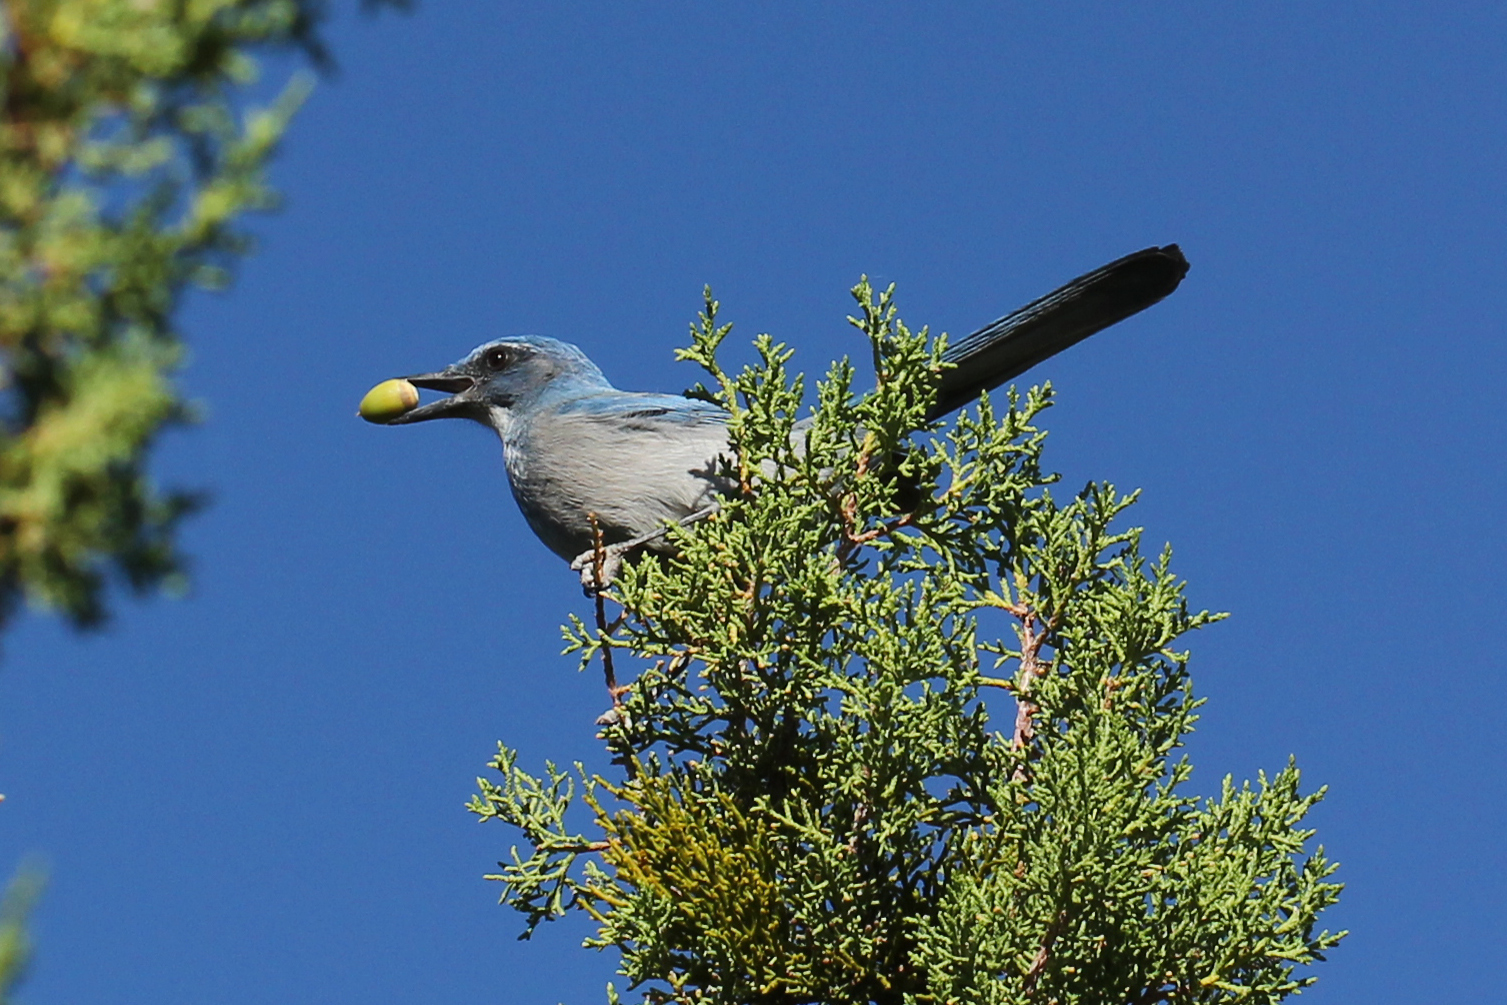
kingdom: Animalia
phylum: Chordata
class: Aves
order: Passeriformes
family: Corvidae
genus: Aphelocoma
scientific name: Aphelocoma woodhouseii
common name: Woodhouse's scrub-jay
